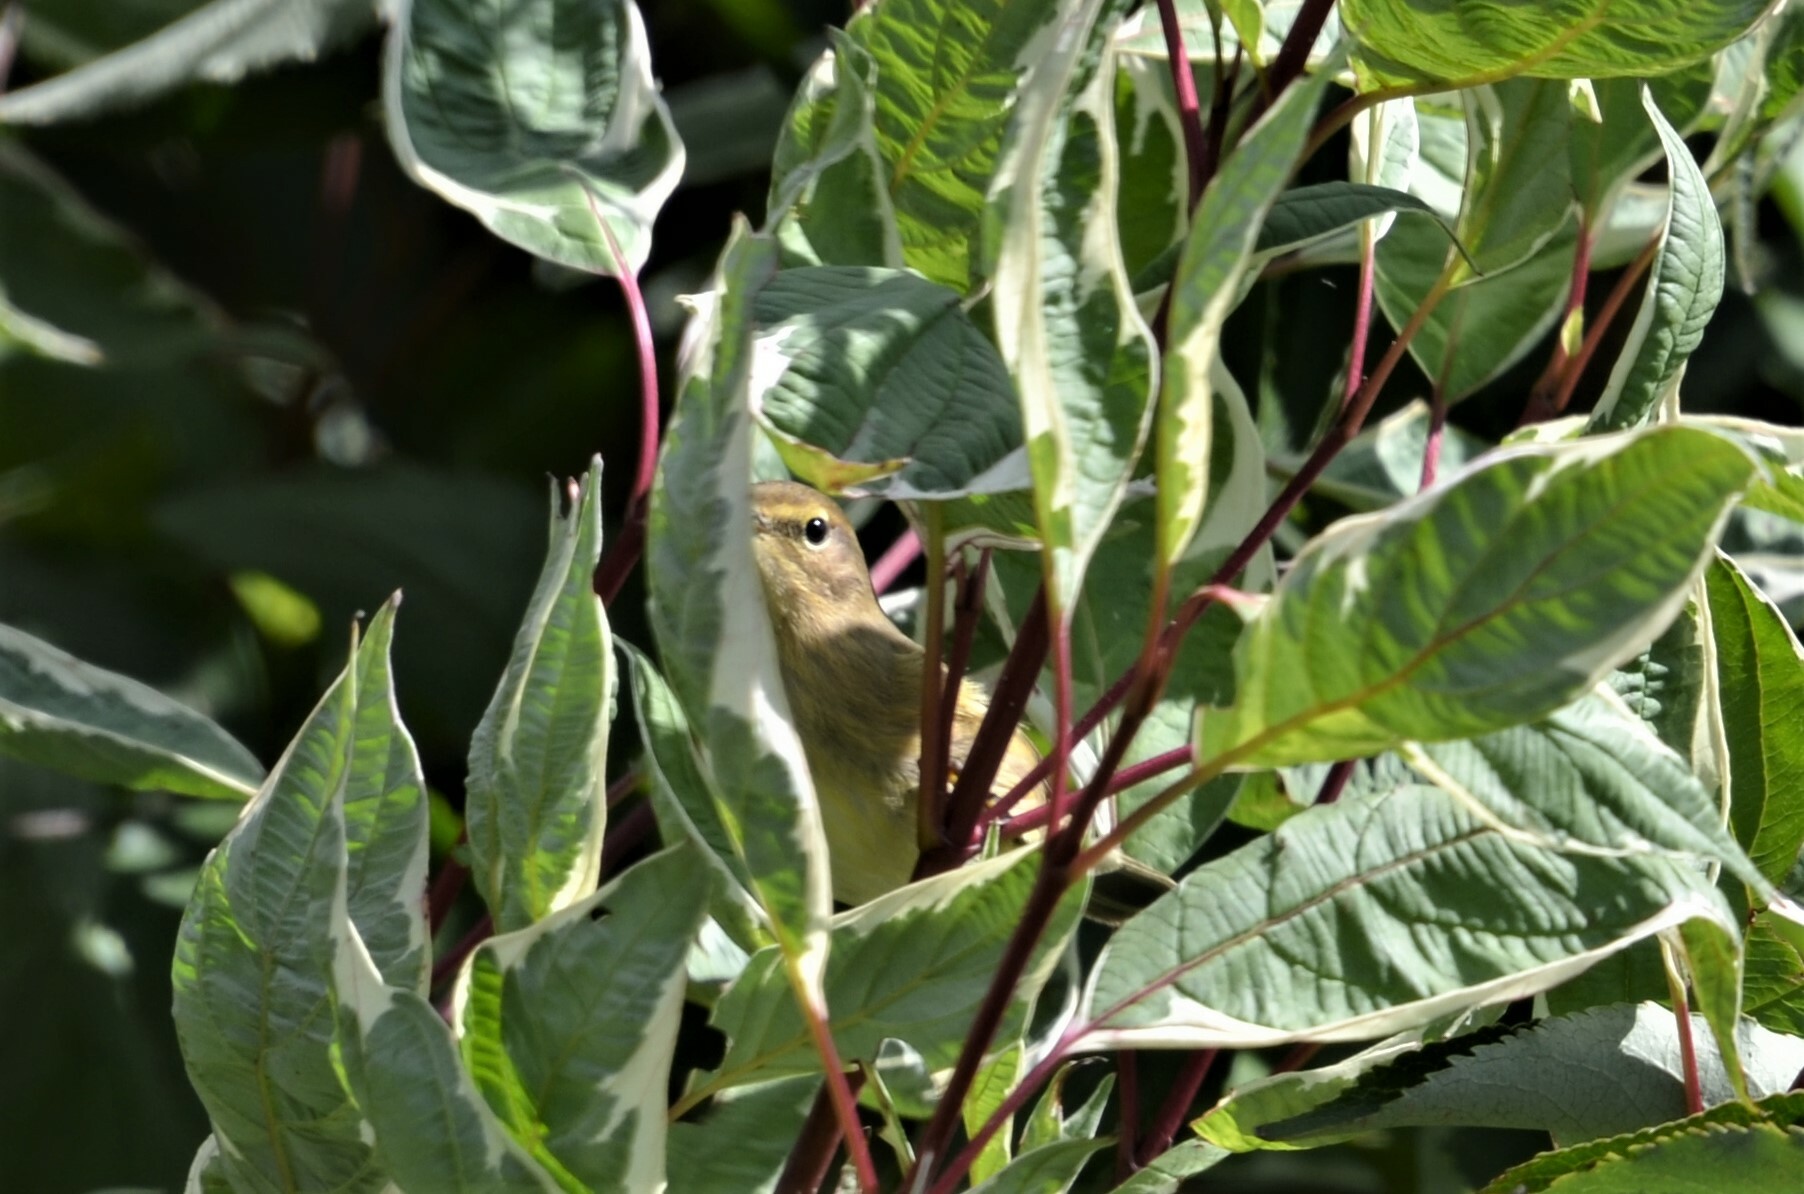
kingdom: Animalia
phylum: Chordata
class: Aves
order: Passeriformes
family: Phylloscopidae
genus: Phylloscopus
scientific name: Phylloscopus collybita
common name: Common chiffchaff
